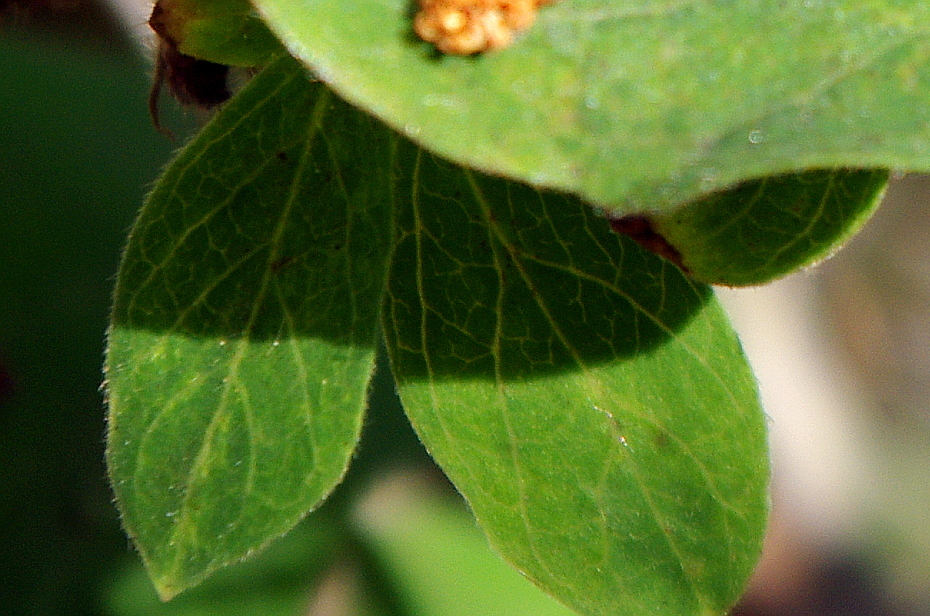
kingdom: Plantae
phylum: Tracheophyta
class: Magnoliopsida
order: Dipsacales
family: Caprifoliaceae
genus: Lonicera
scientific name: Lonicera caerulea
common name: Blue honeysuckle
